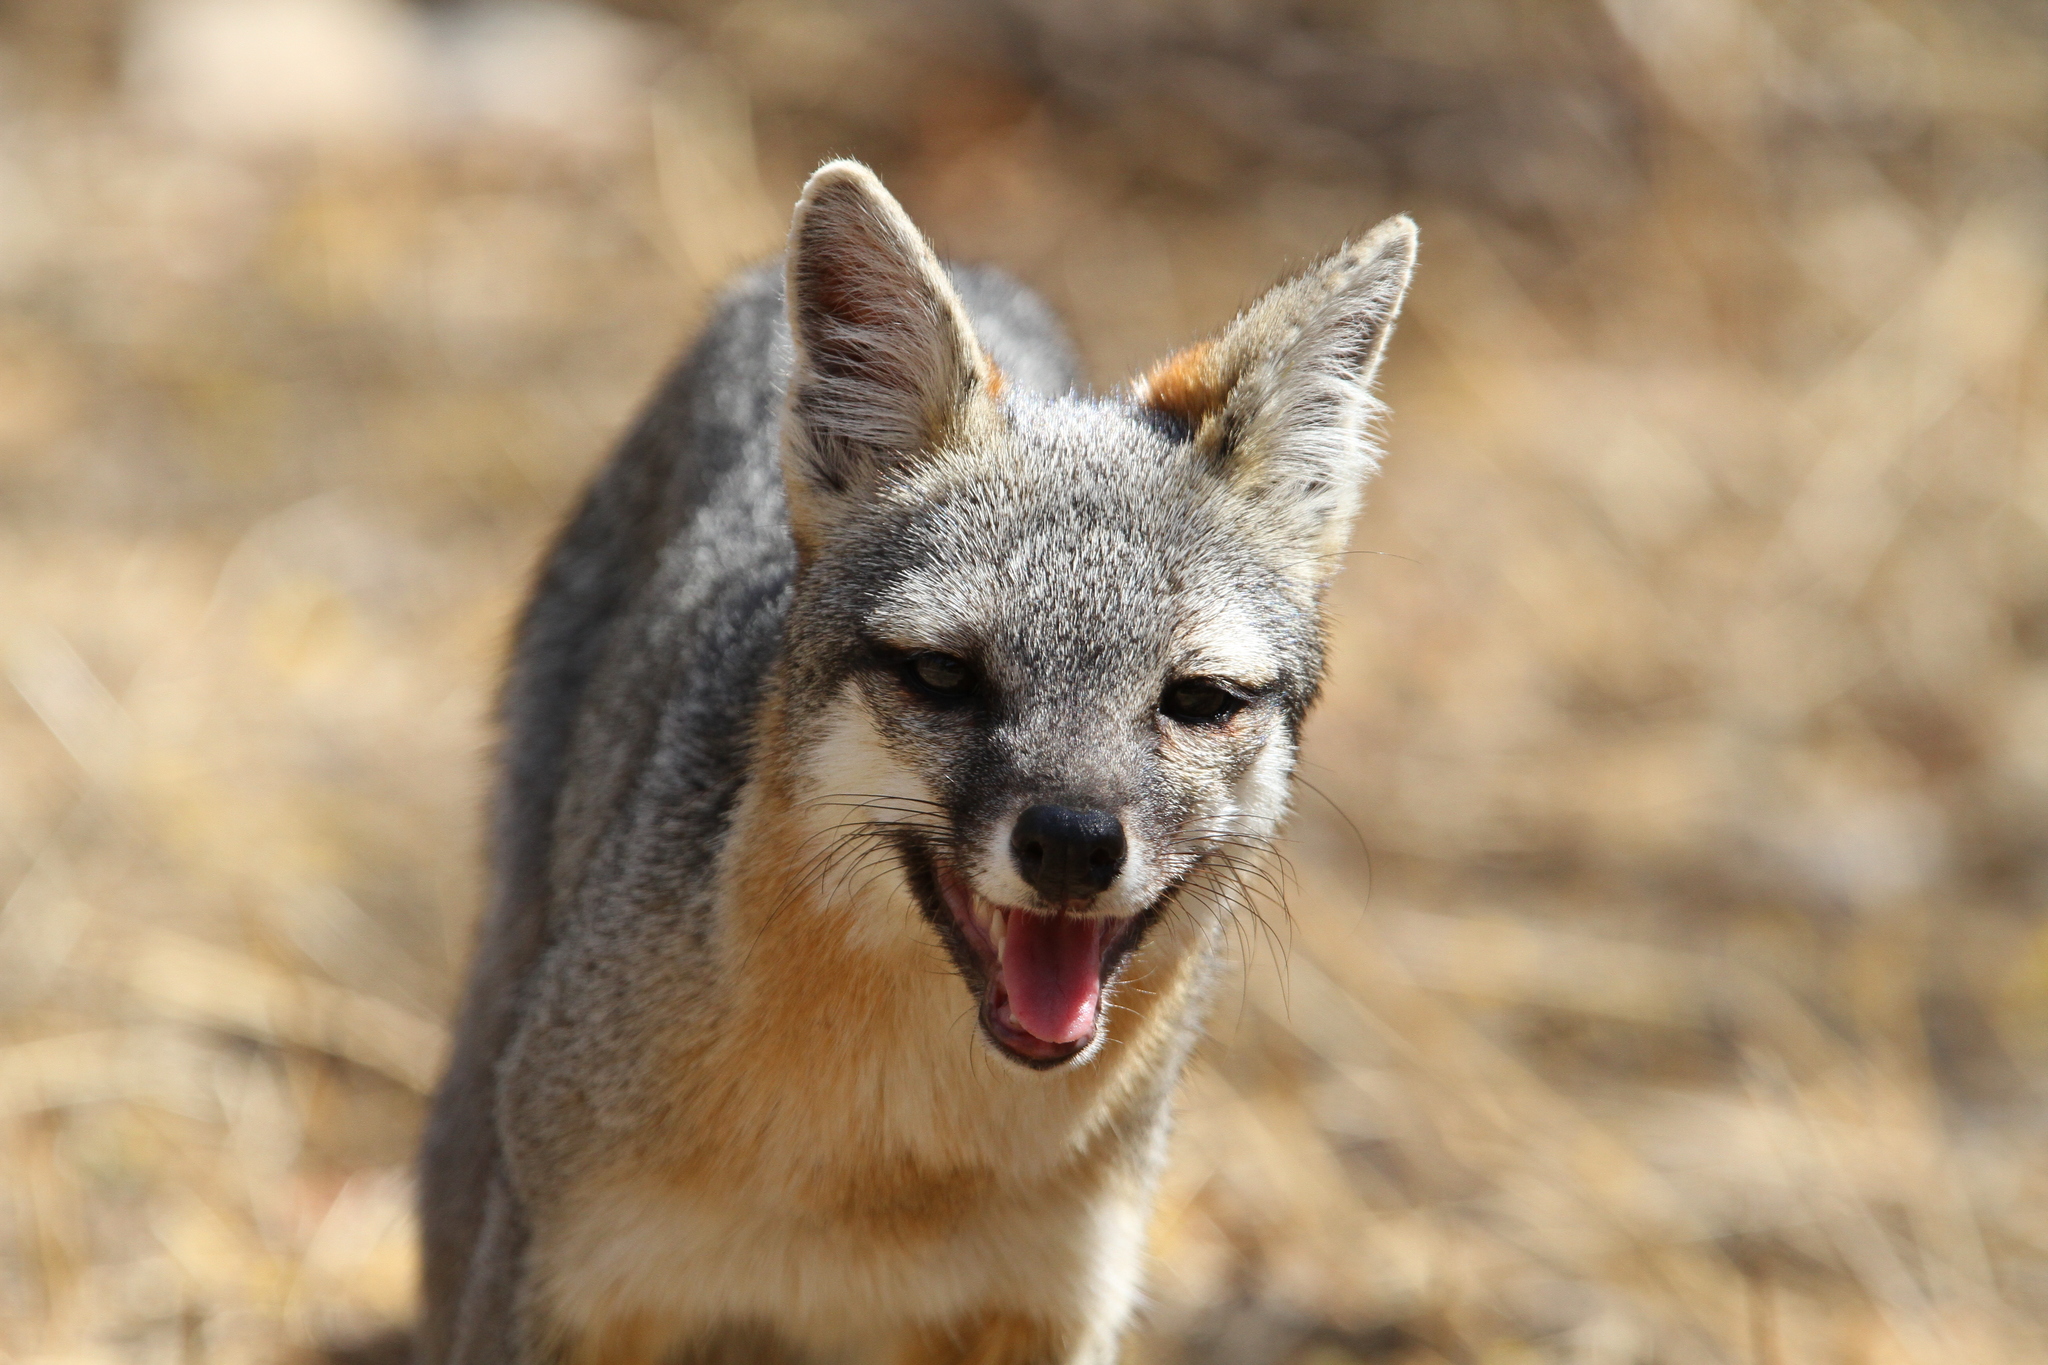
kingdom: Animalia
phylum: Chordata
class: Mammalia
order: Carnivora
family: Canidae
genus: Urocyon
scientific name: Urocyon cinereoargenteus
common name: Gray fox
